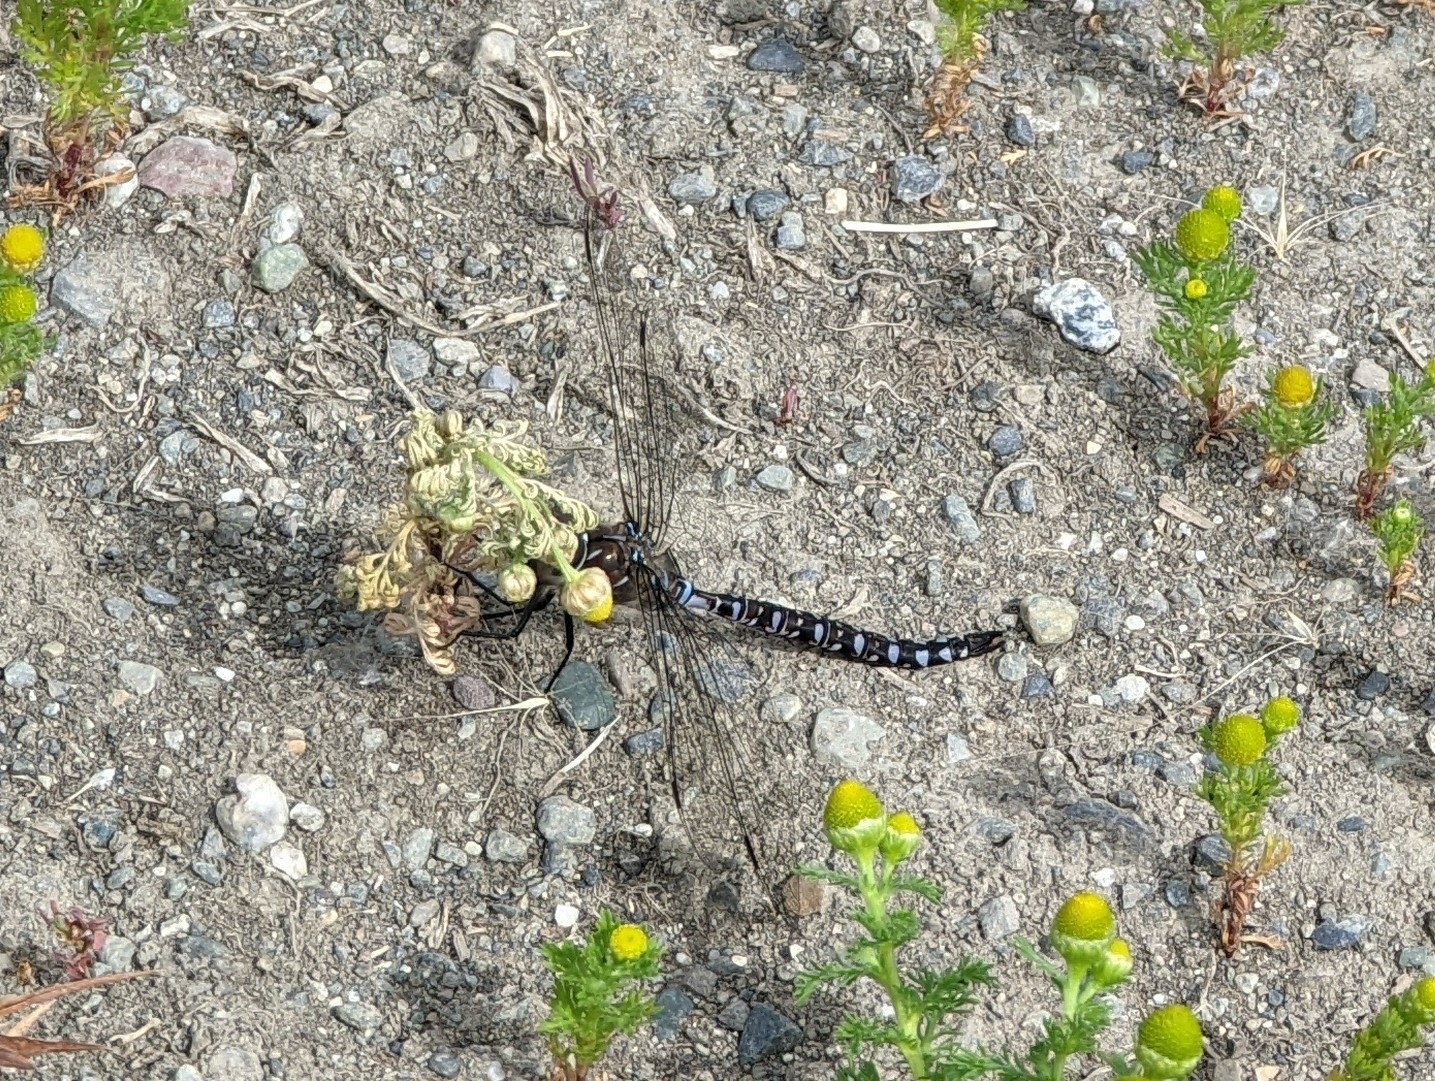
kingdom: Animalia
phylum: Arthropoda
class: Insecta
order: Odonata
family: Aeshnidae
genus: Aeshna
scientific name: Aeshna interrupta
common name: Variable darner
